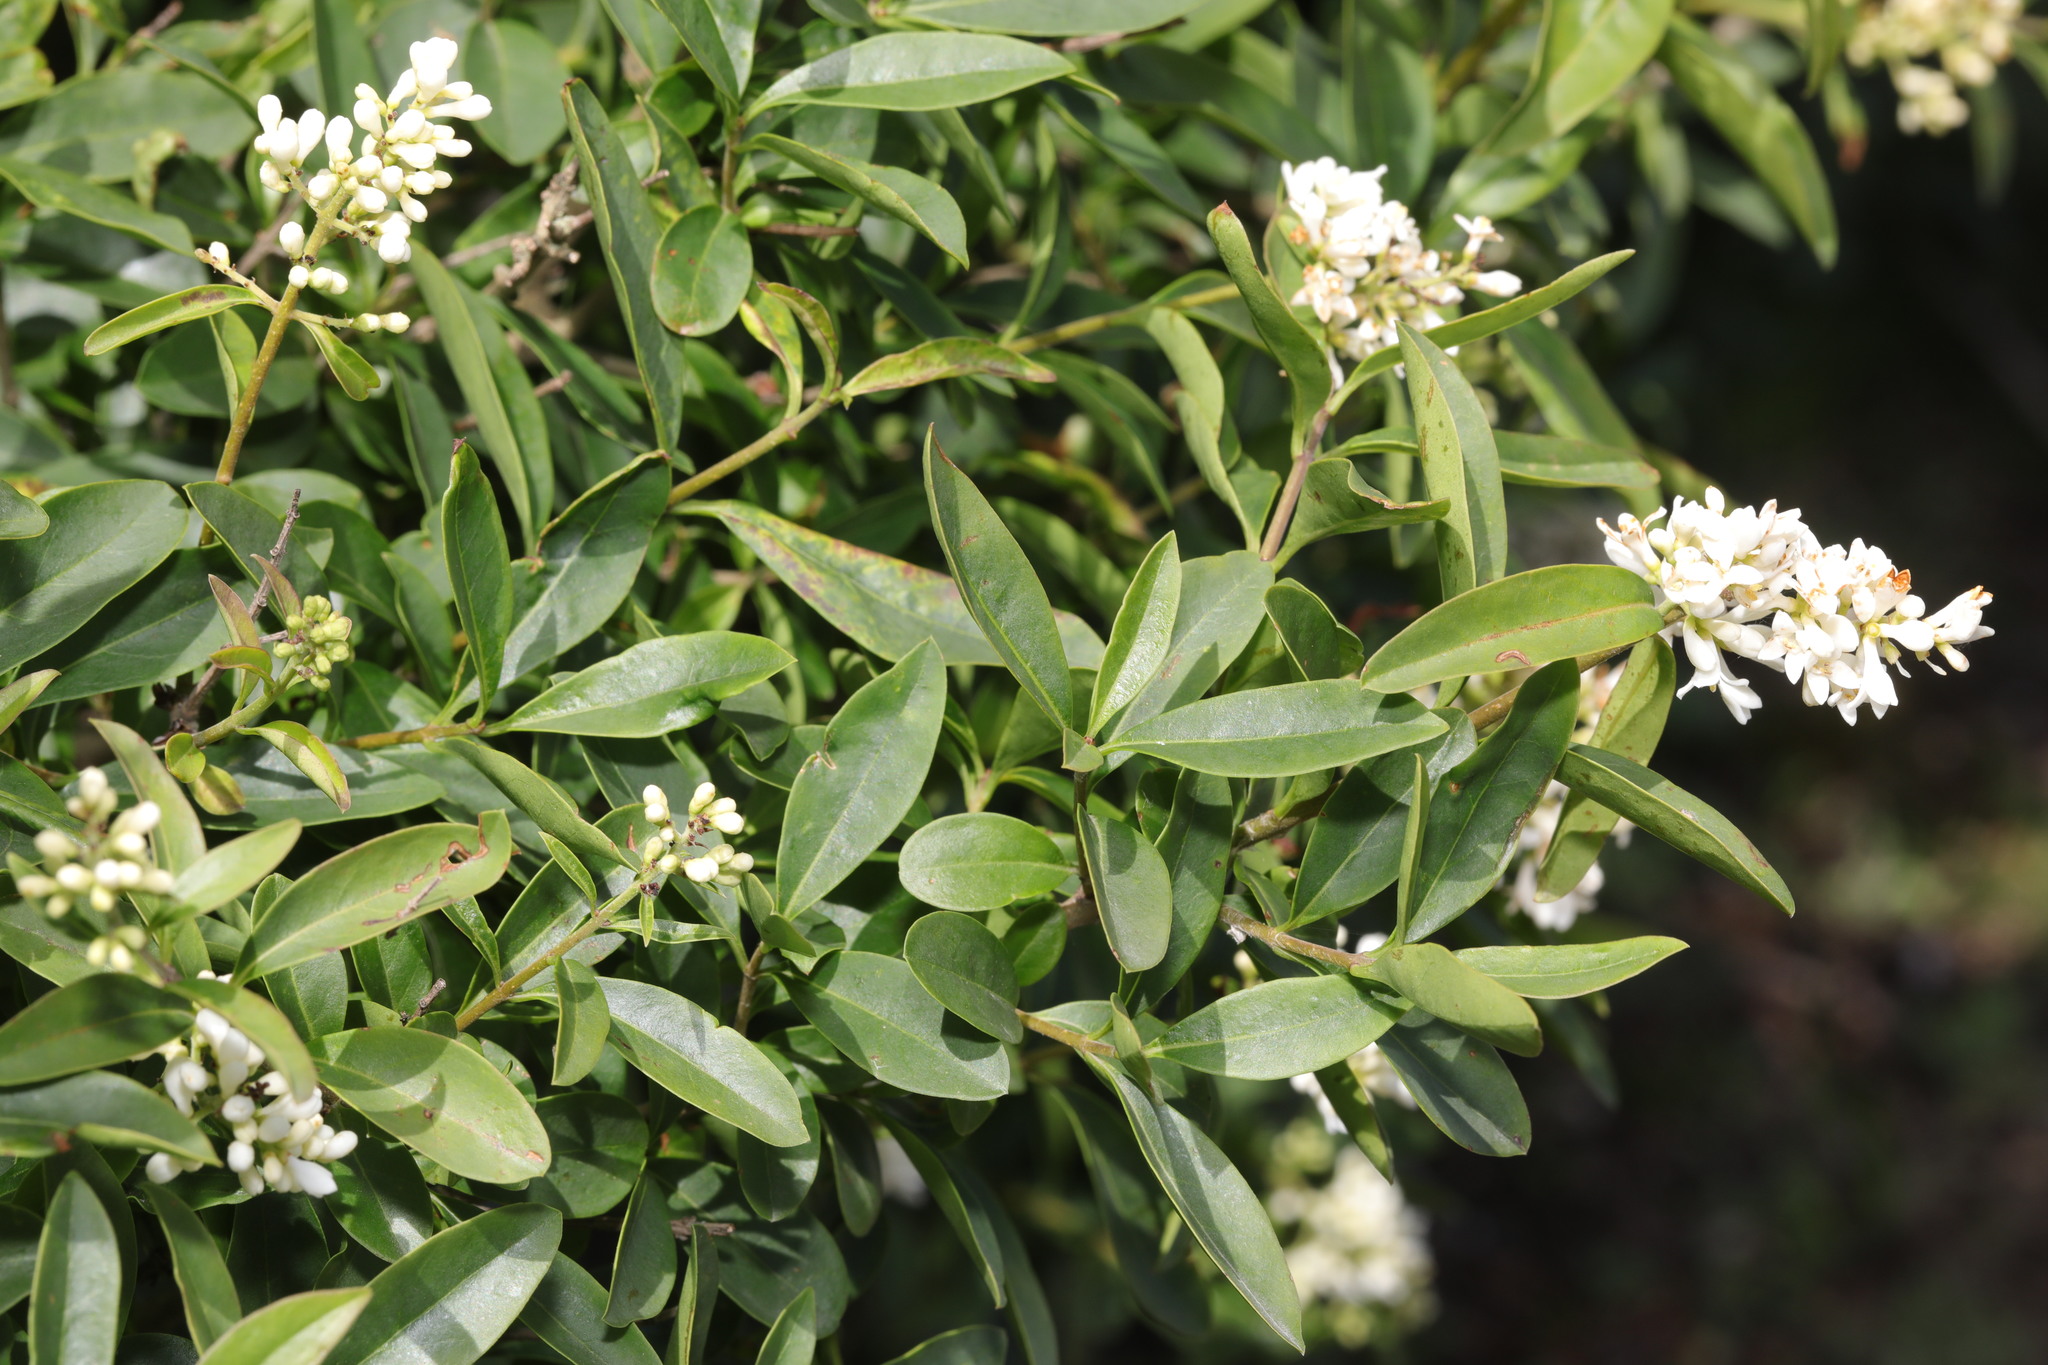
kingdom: Plantae
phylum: Tracheophyta
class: Magnoliopsida
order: Lamiales
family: Oleaceae
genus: Ligustrum
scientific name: Ligustrum vulgare
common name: Wild privet
